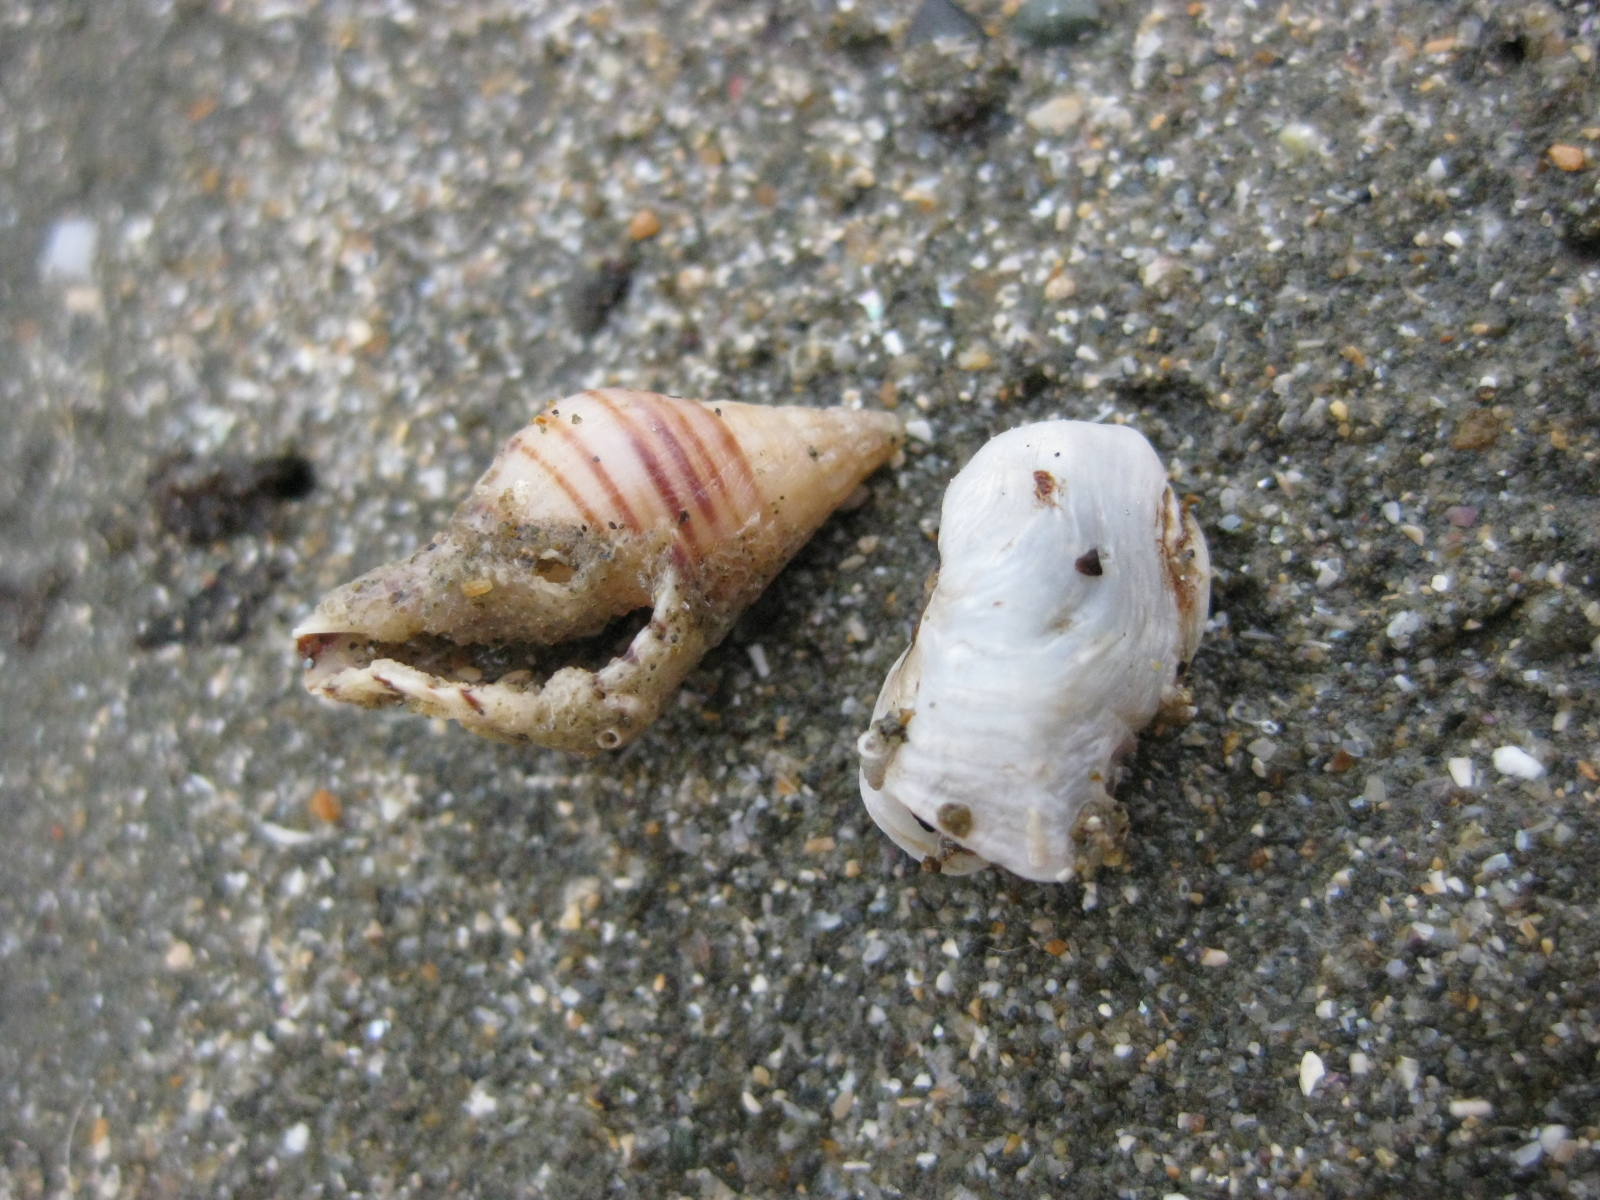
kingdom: Animalia
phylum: Mollusca
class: Bivalvia
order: Adapedonta
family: Hiatellidae
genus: Hiatella
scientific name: Hiatella arctica
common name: Arctic hiatella
